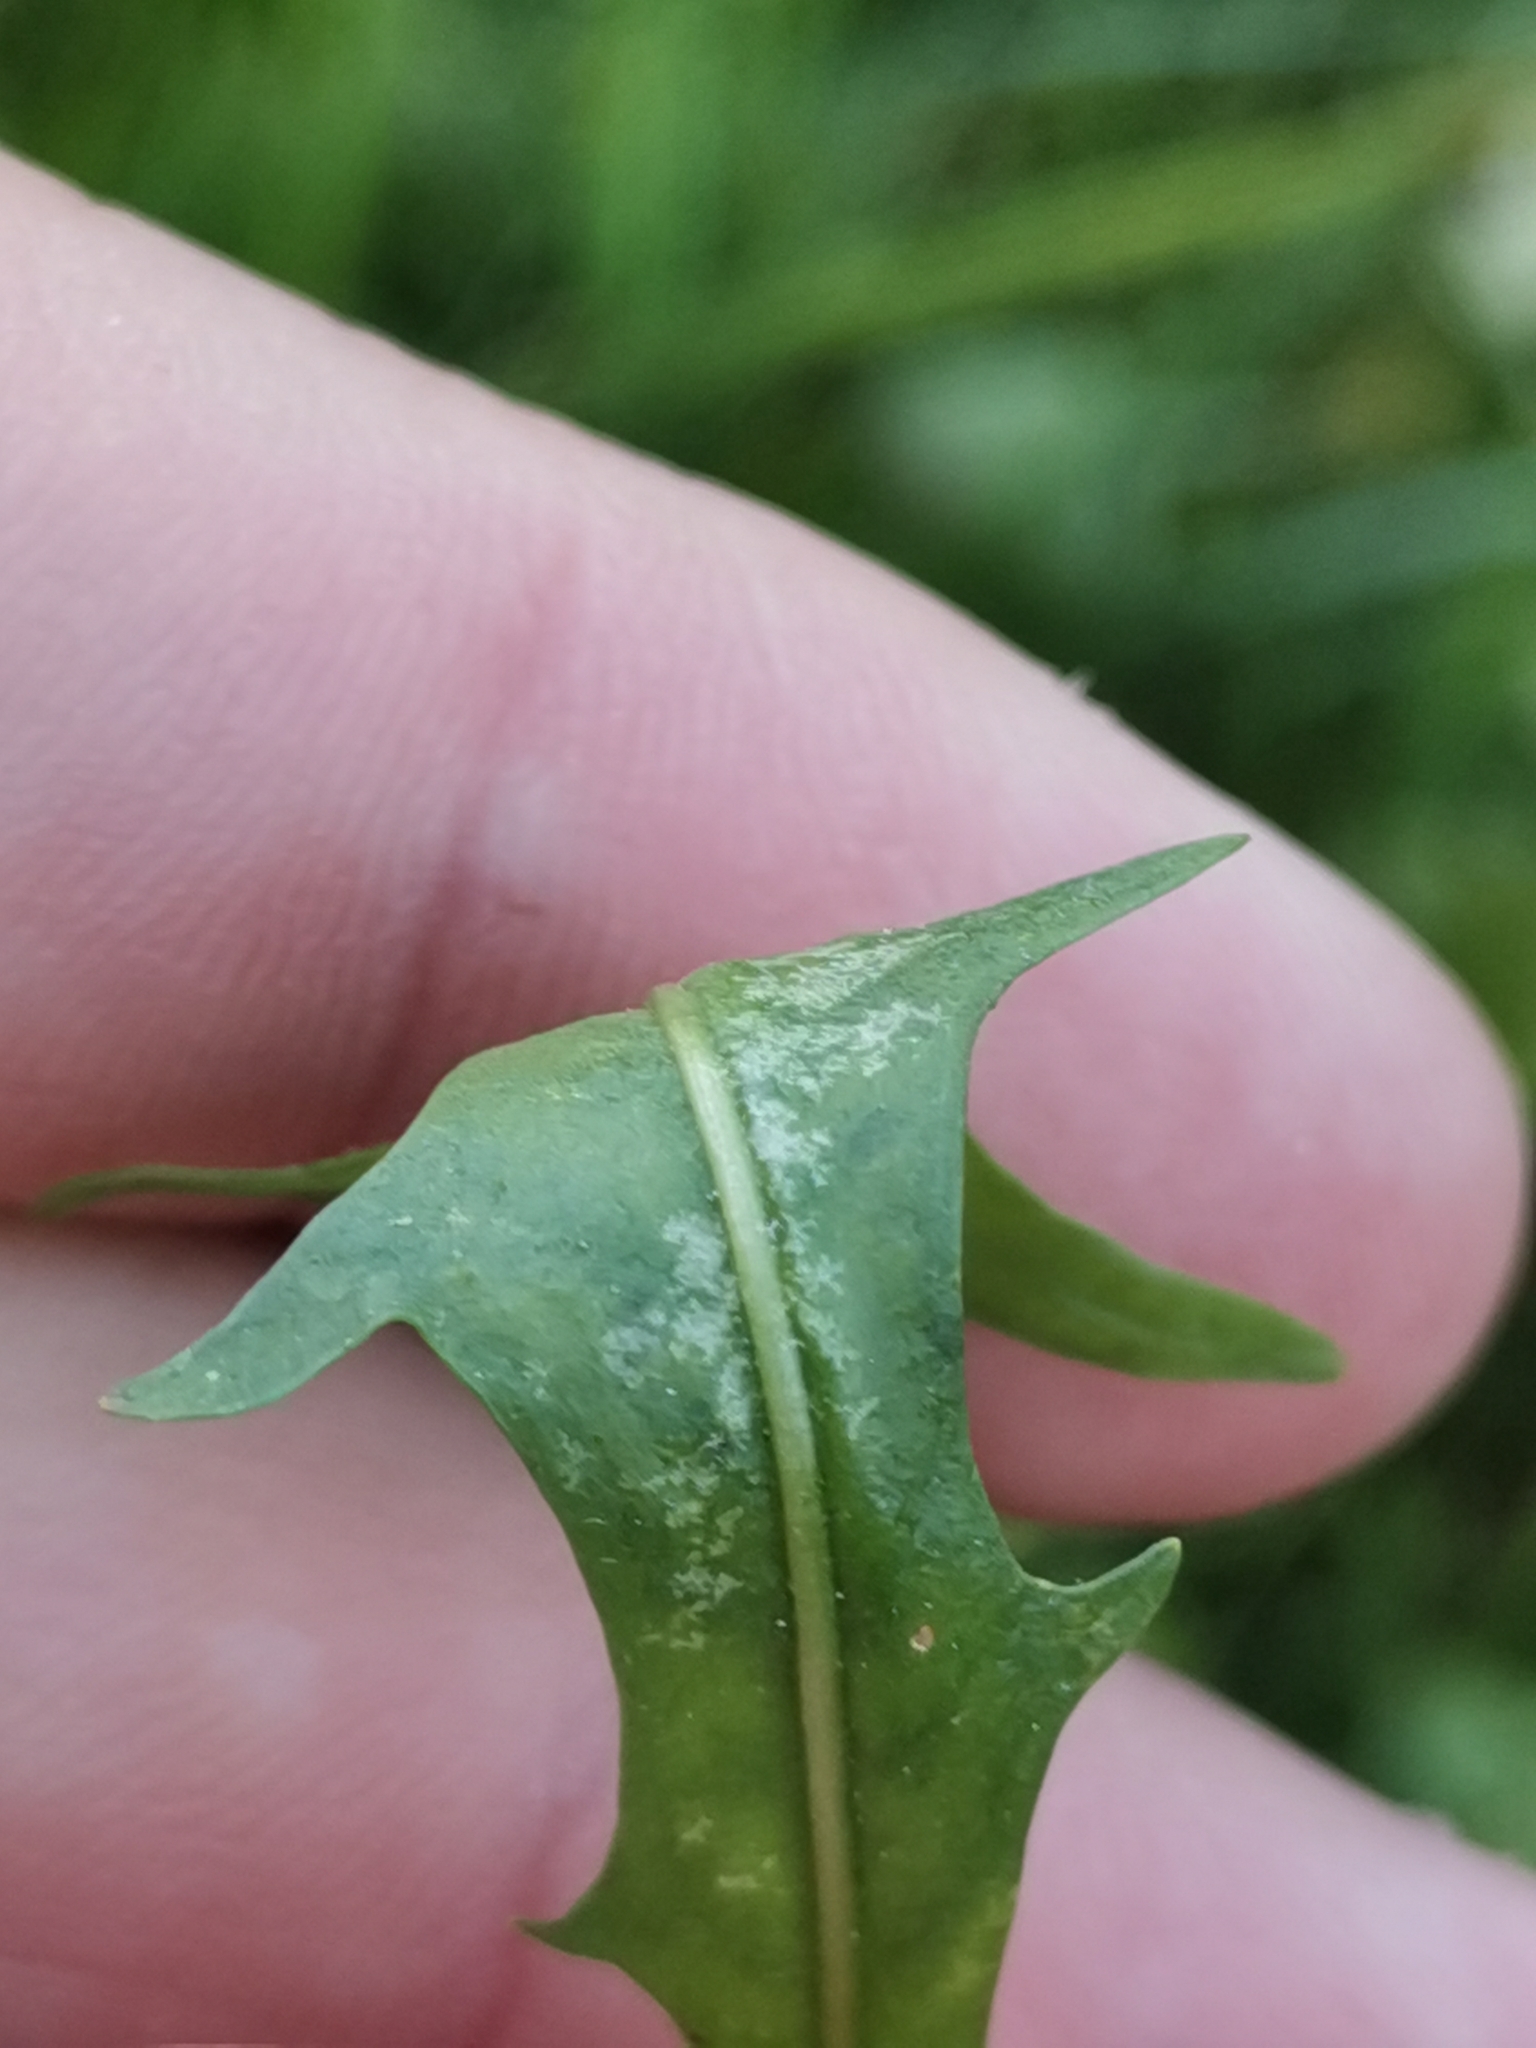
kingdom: Plantae
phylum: Tracheophyta
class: Magnoliopsida
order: Asterales
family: Asteraceae
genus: Scorzoneroides
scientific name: Scorzoneroides autumnalis
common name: Autumn hawkbit
